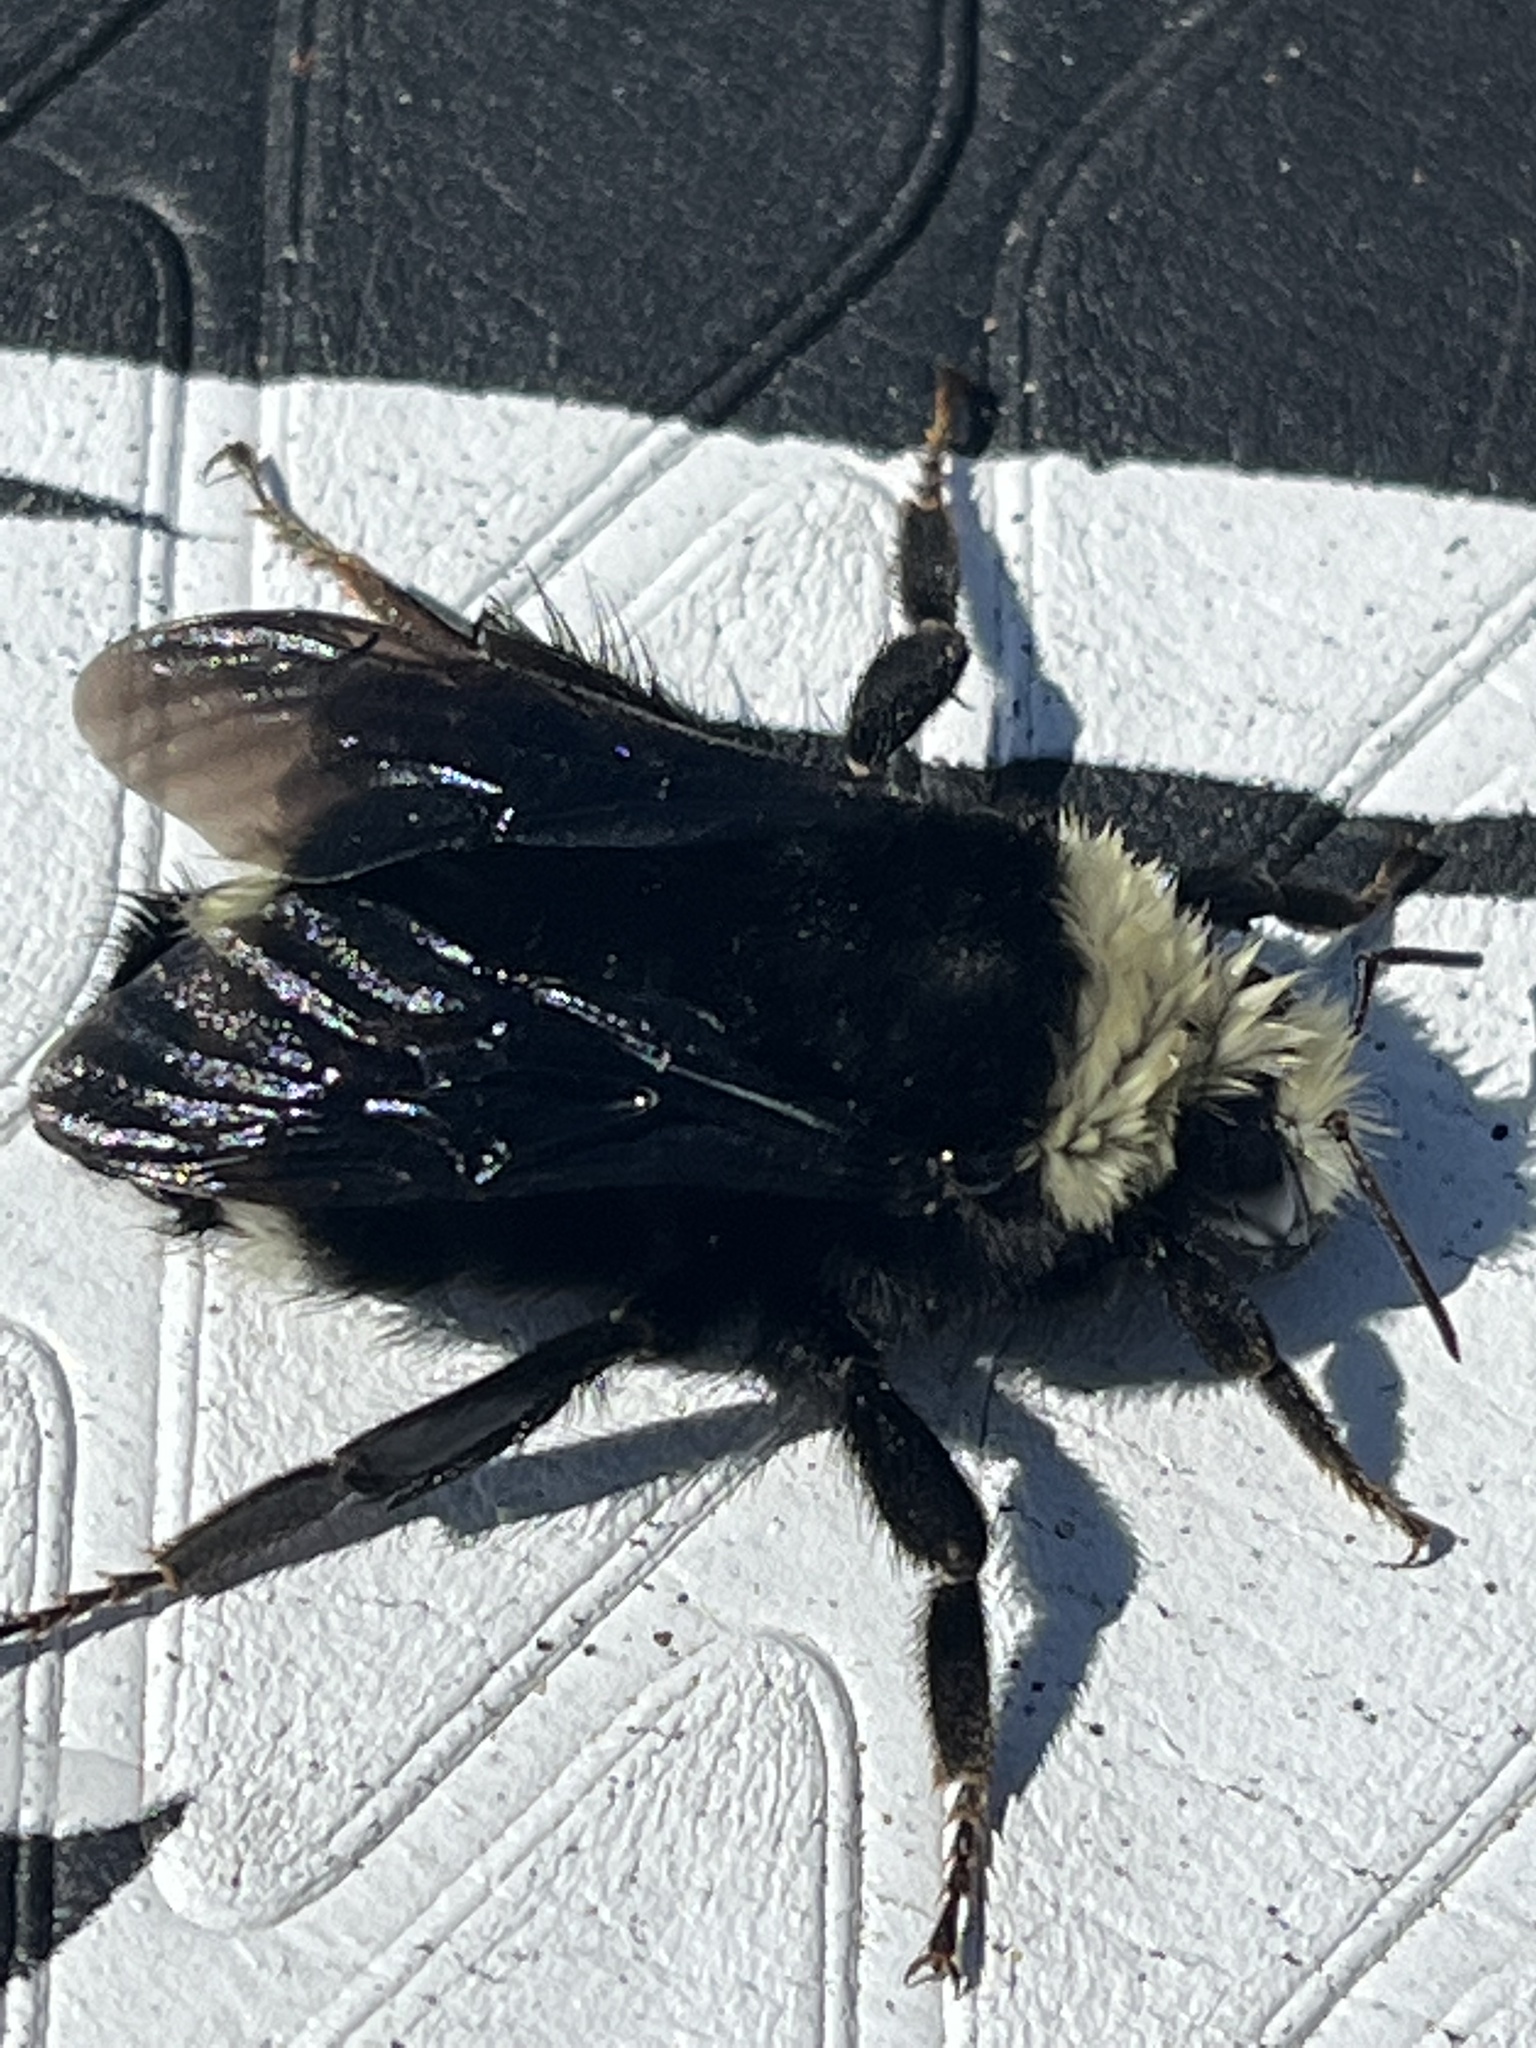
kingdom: Animalia
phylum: Arthropoda
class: Insecta
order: Hymenoptera
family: Apidae
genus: Bombus
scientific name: Bombus vosnesenskii
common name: Vosnesensky bumble bee
